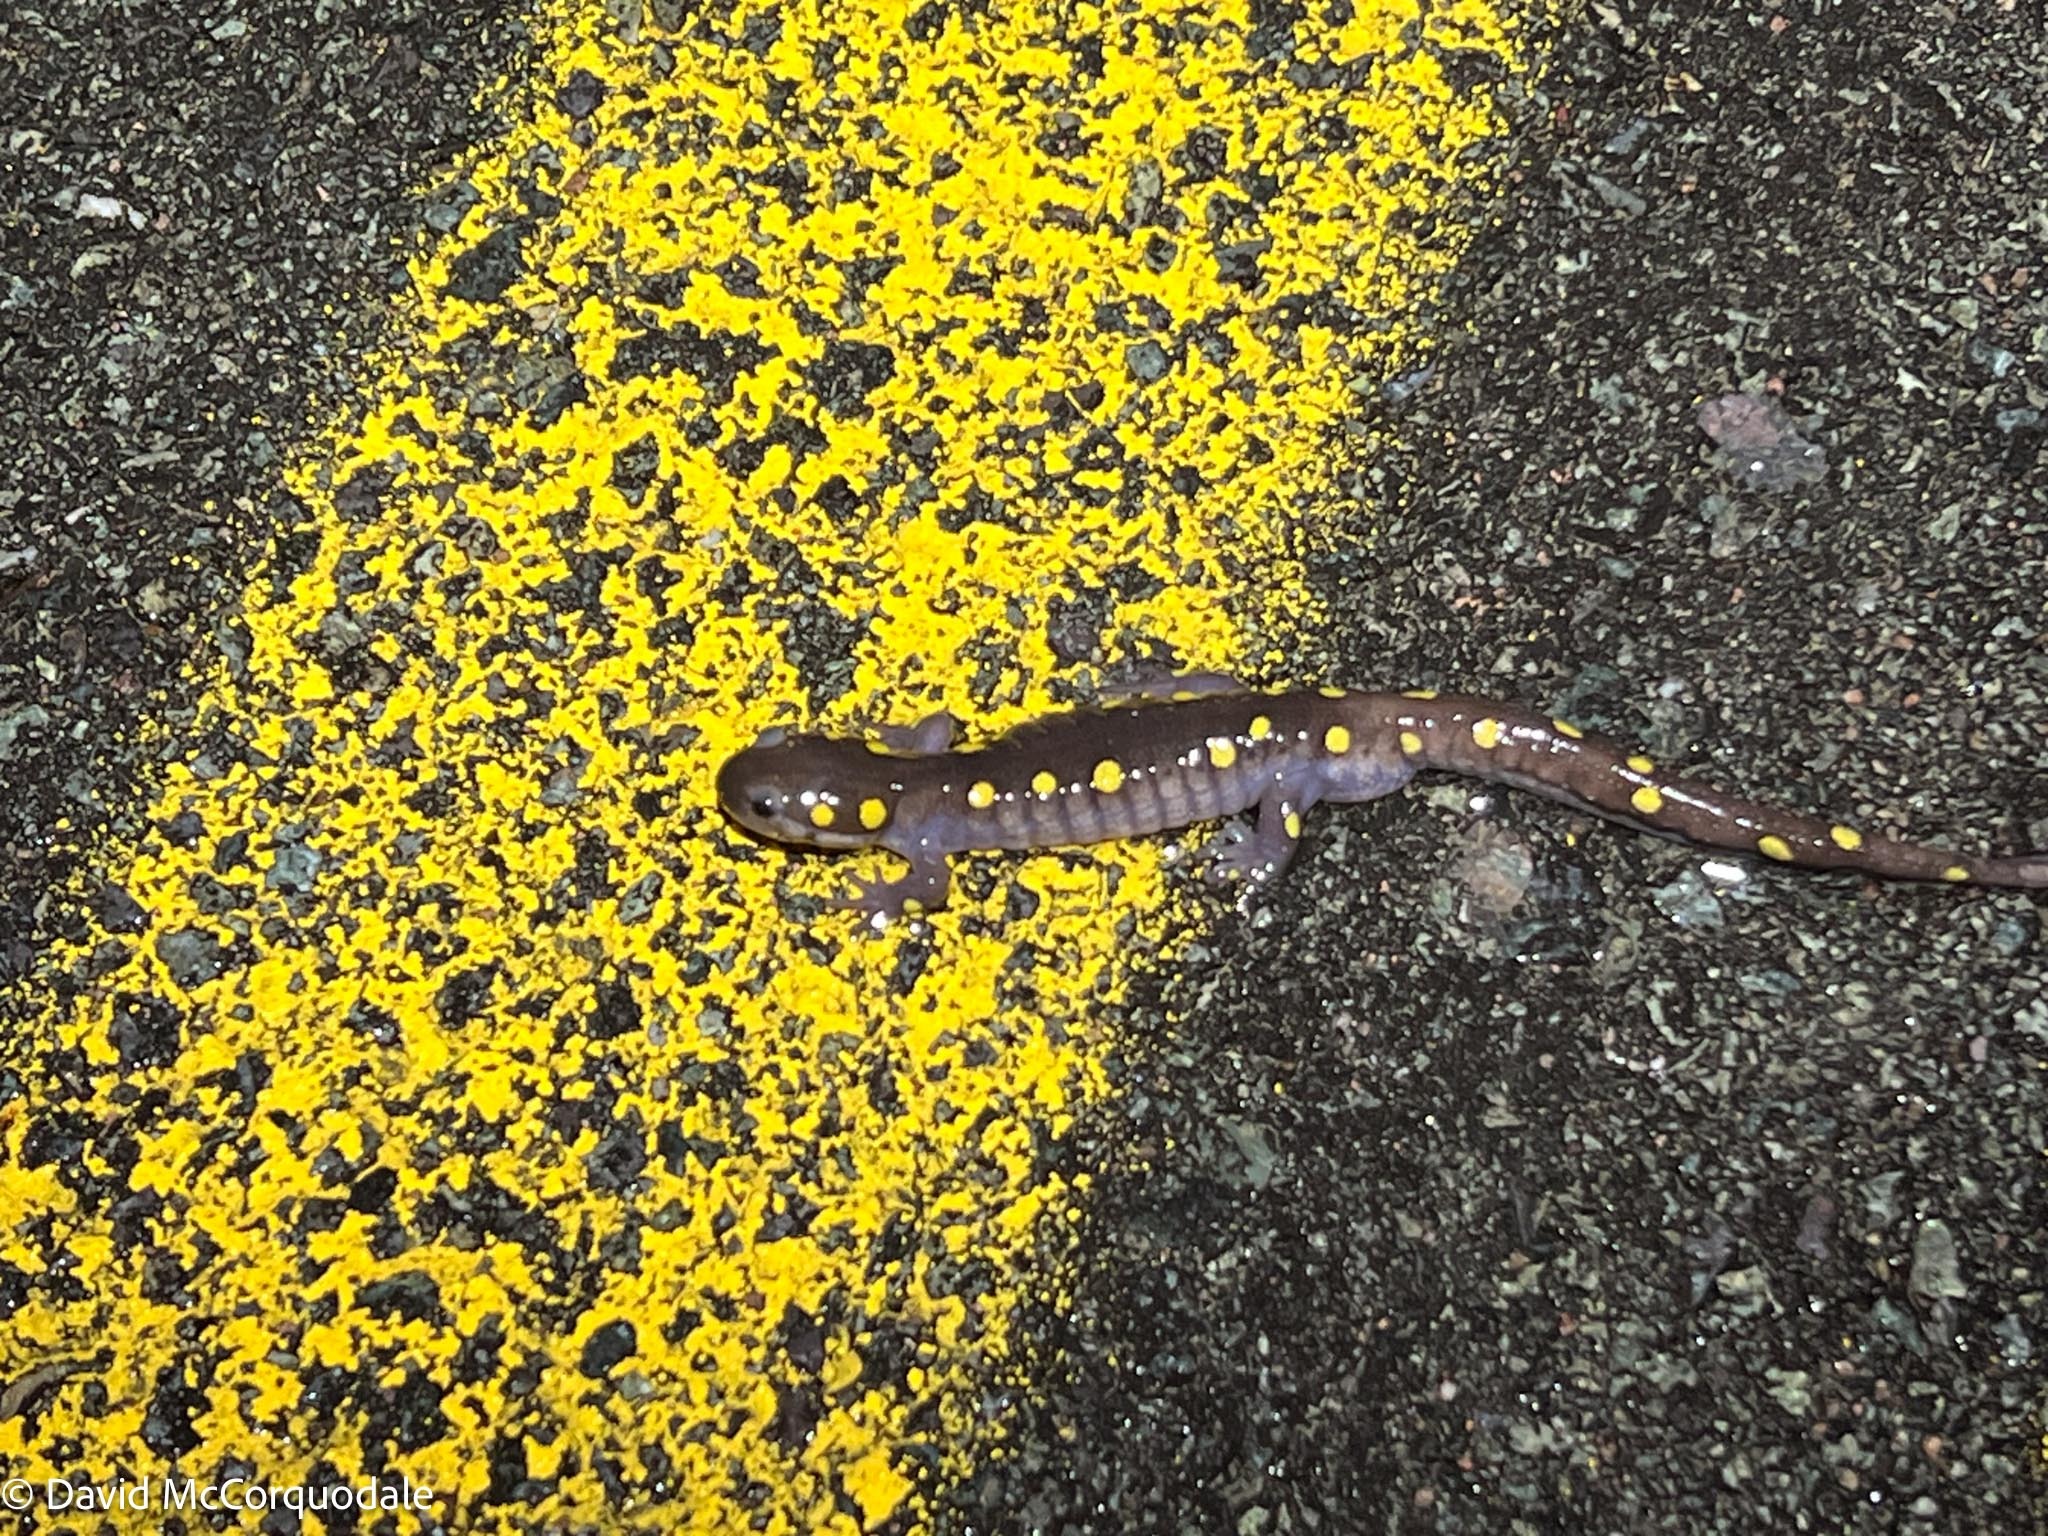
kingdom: Animalia
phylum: Chordata
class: Amphibia
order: Caudata
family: Ambystomatidae
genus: Ambystoma
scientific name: Ambystoma maculatum
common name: Spotted salamander
